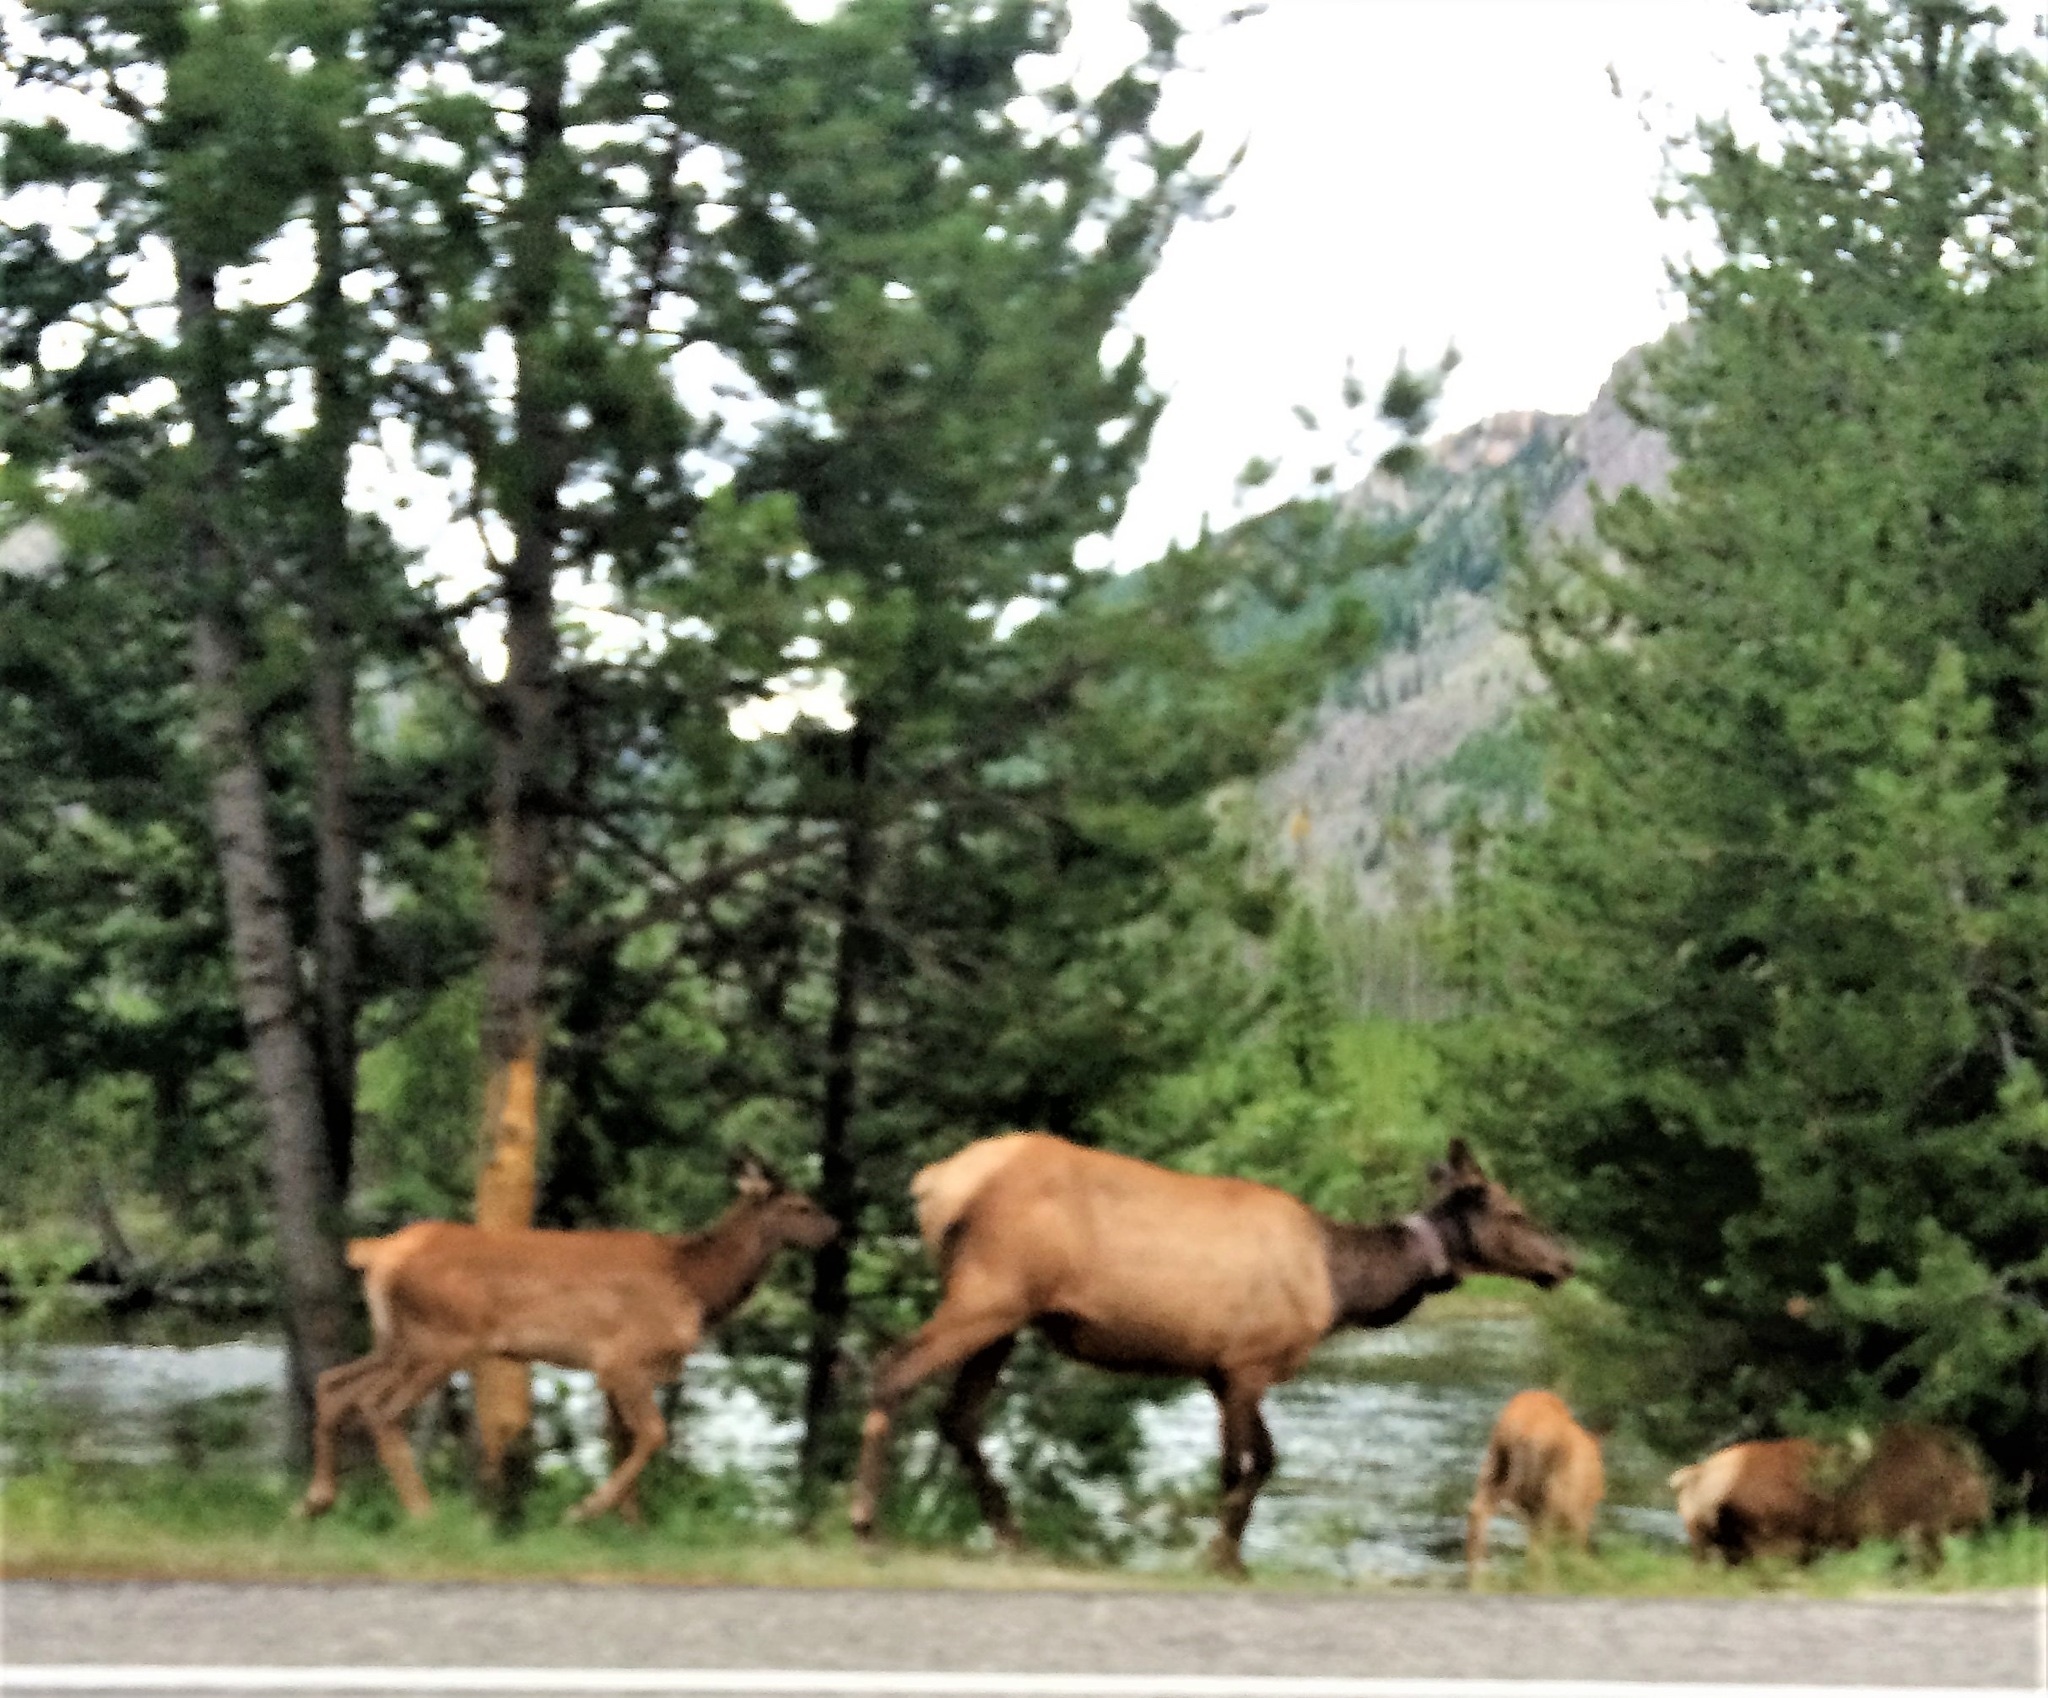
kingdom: Animalia
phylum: Chordata
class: Mammalia
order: Artiodactyla
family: Cervidae
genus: Cervus
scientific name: Cervus elaphus
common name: Red deer
